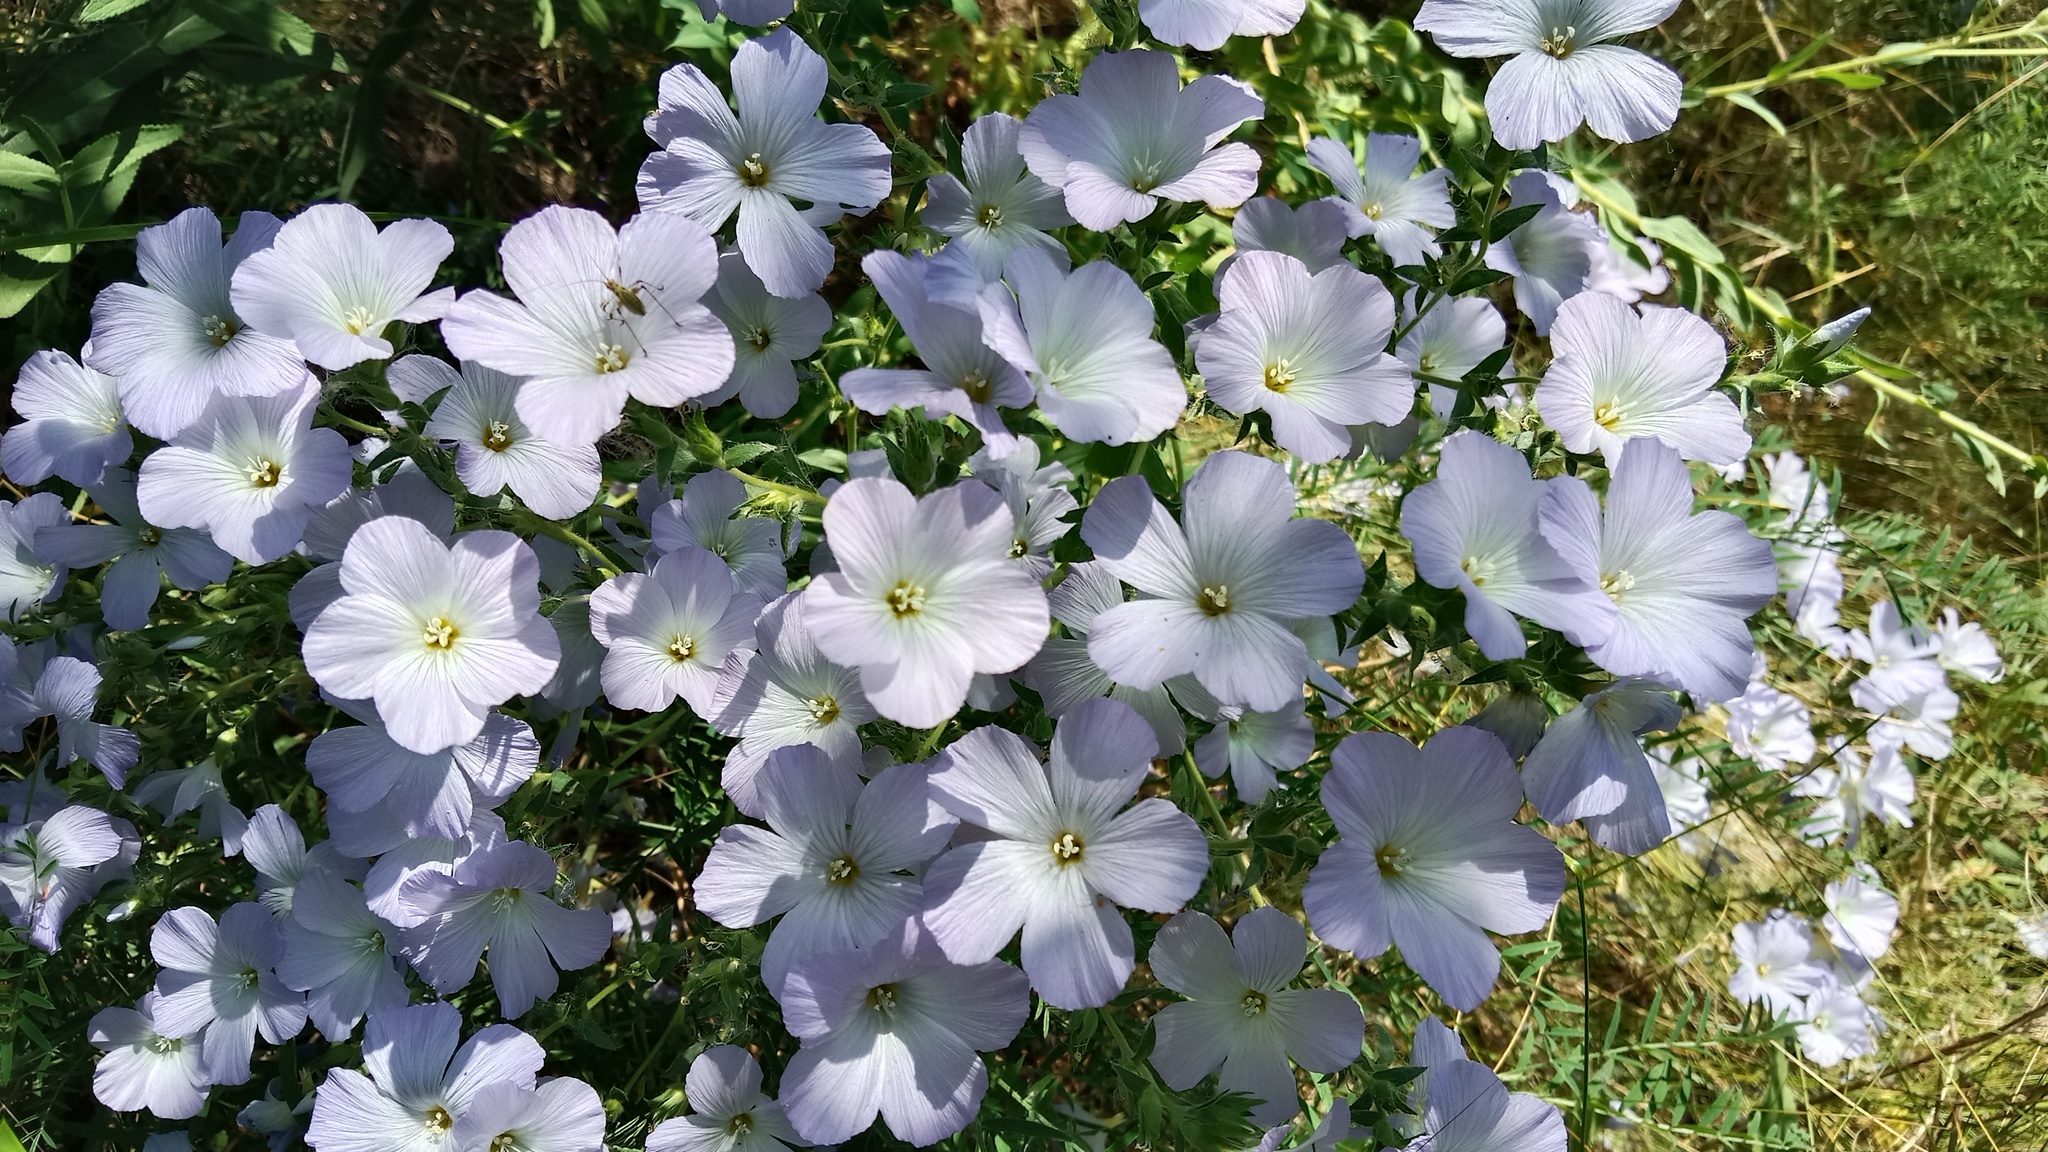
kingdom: Plantae
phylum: Tracheophyta
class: Magnoliopsida
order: Malpighiales
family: Linaceae
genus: Linum
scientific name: Linum hirsutum
